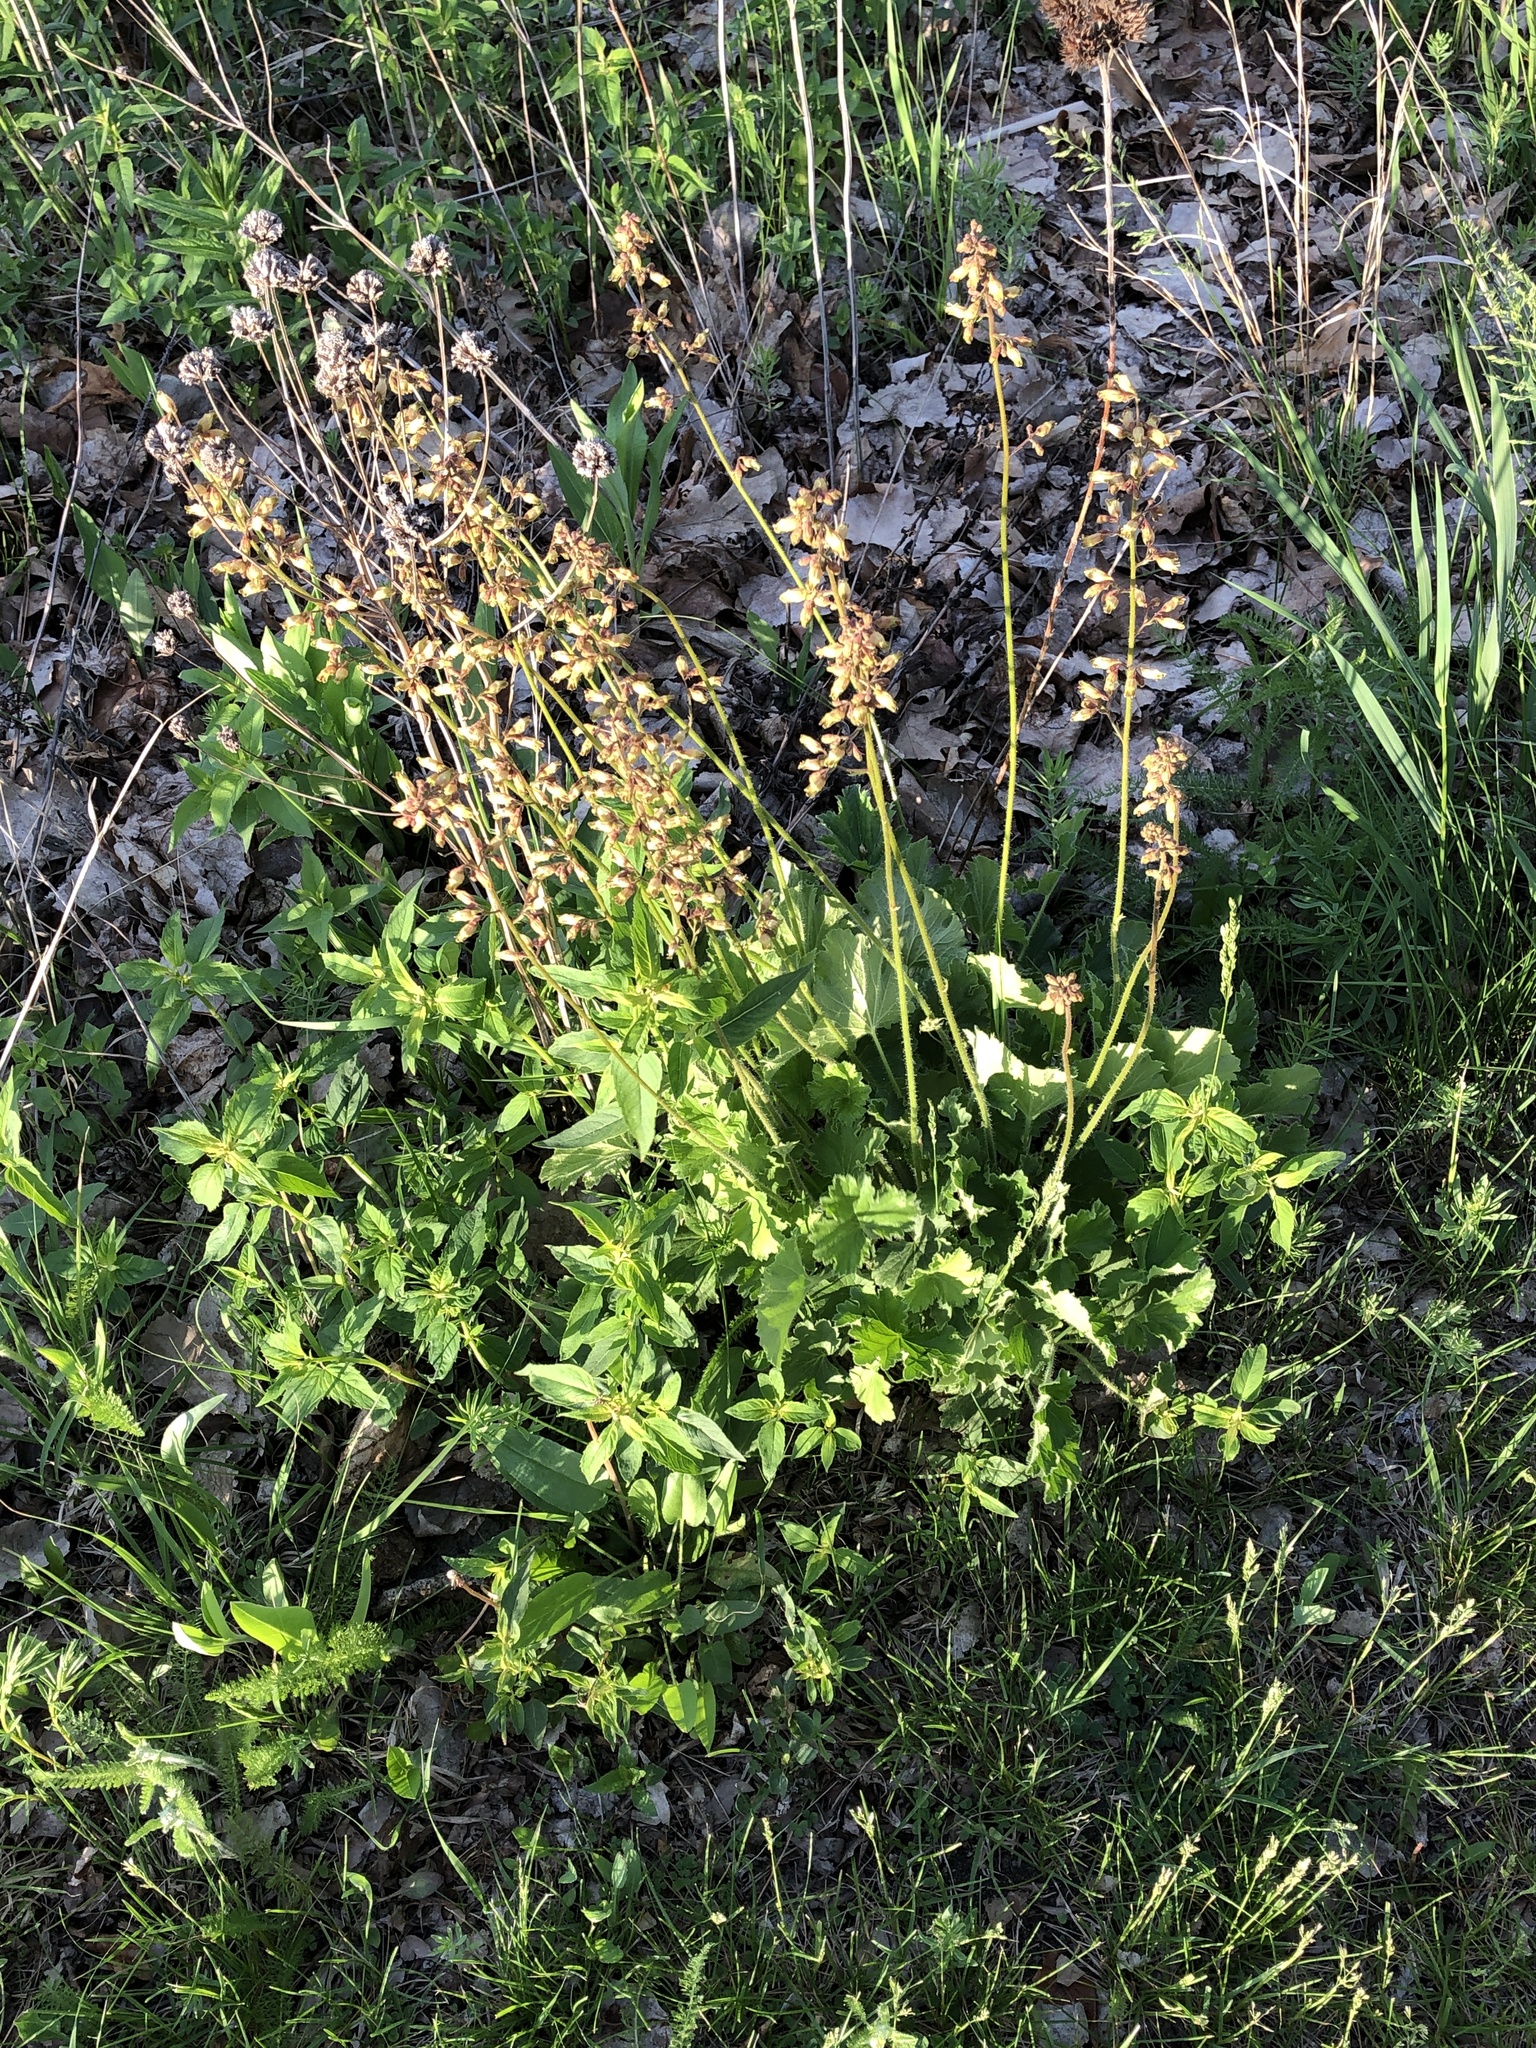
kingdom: Plantae
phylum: Tracheophyta
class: Magnoliopsida
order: Saxifragales
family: Saxifragaceae
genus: Heuchera
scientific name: Heuchera richardsonii
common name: Richardson's alumroot
